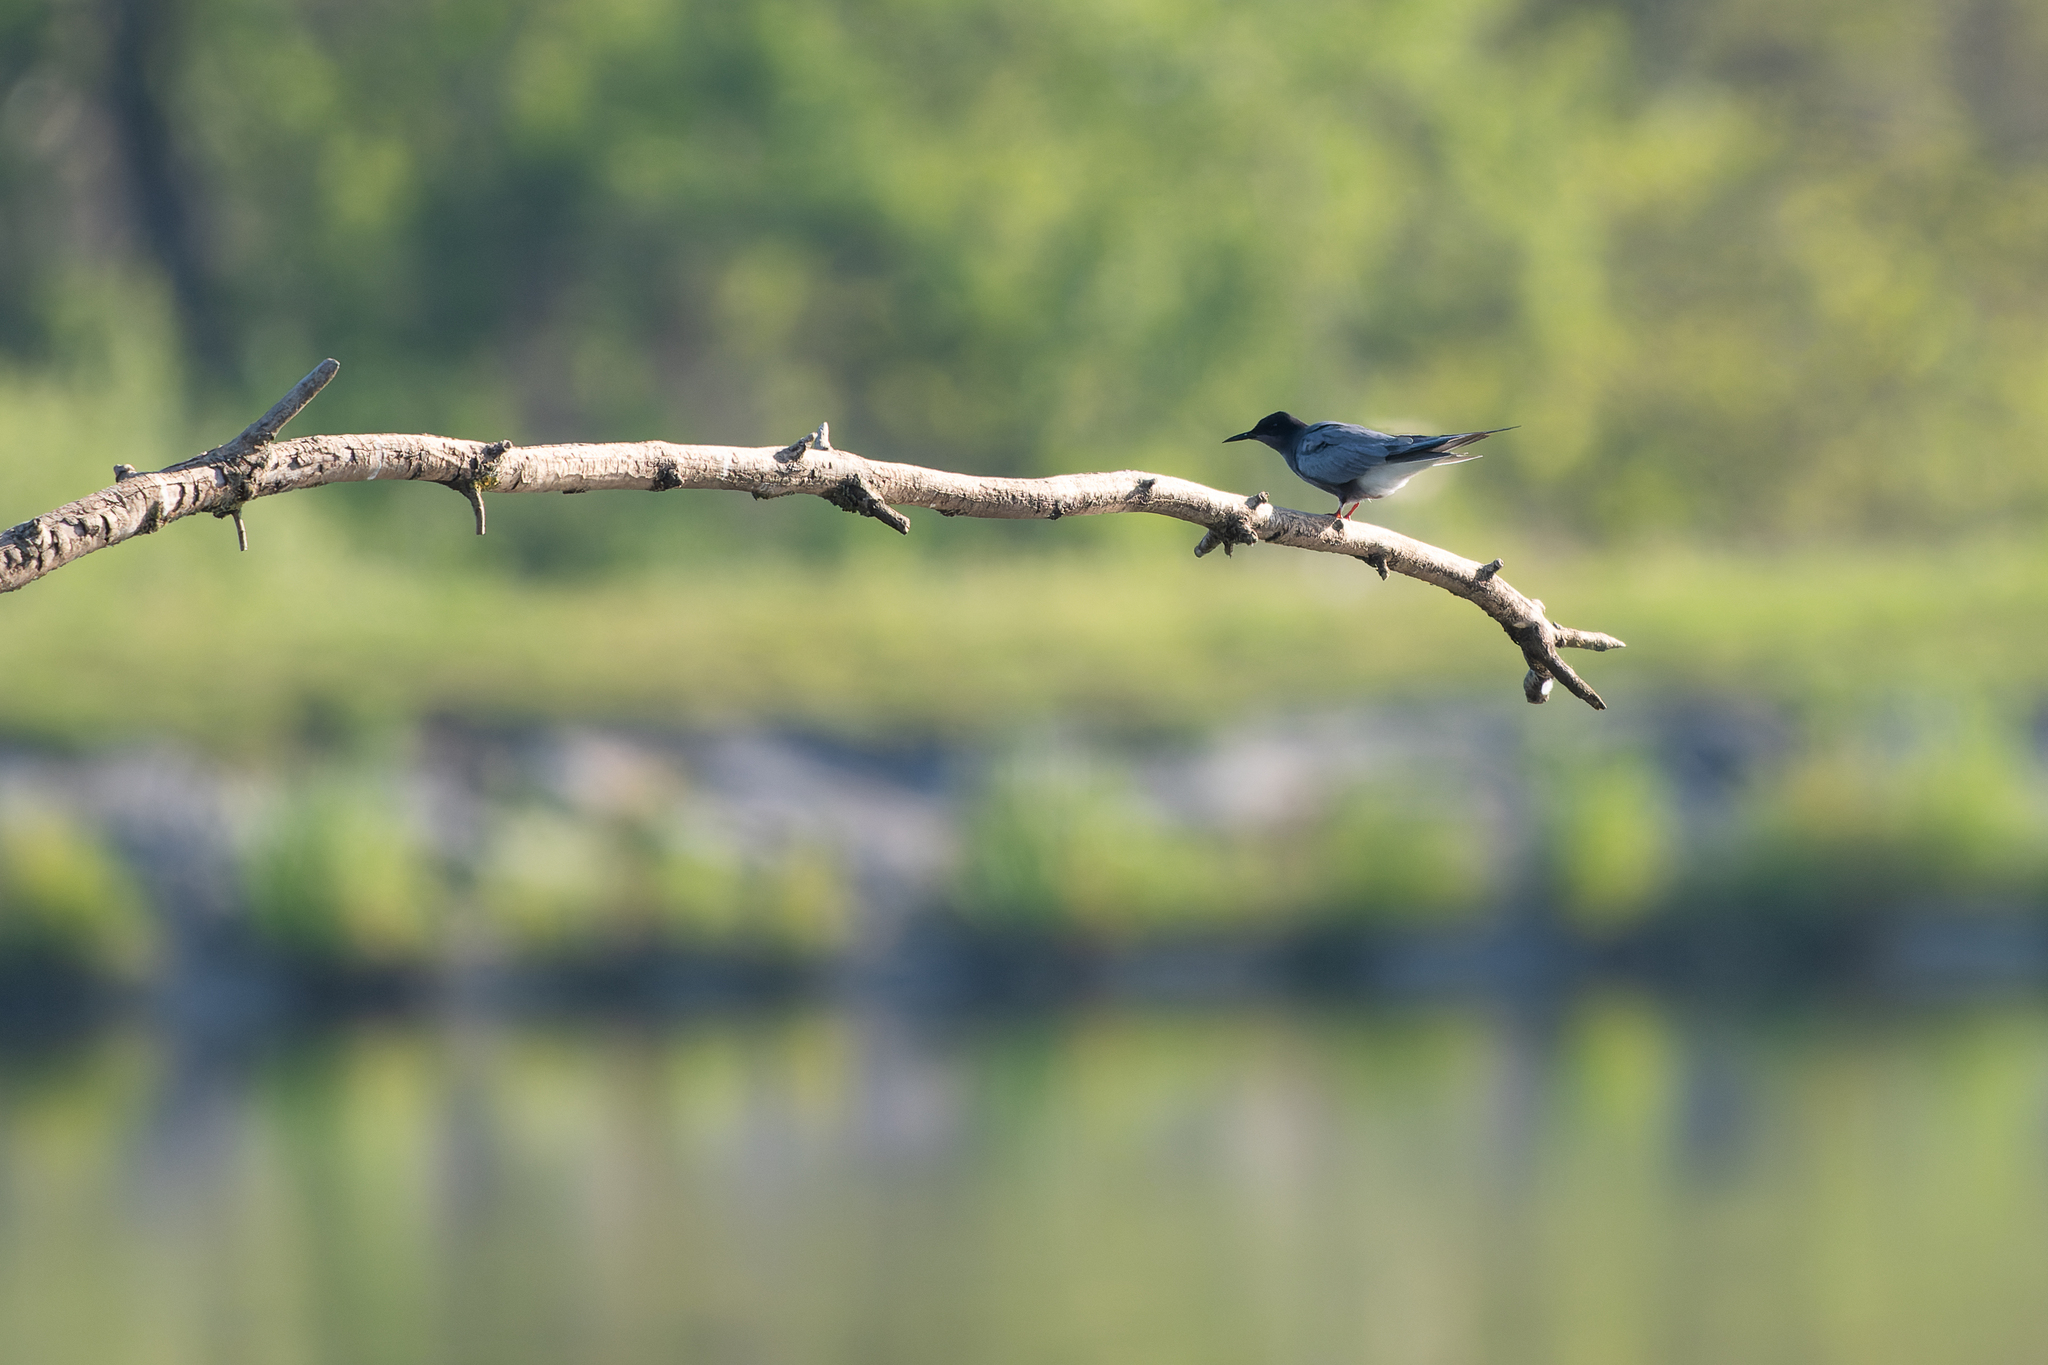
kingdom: Animalia
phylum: Chordata
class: Aves
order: Charadriiformes
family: Laridae
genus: Chlidonias
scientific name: Chlidonias niger
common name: Black tern
